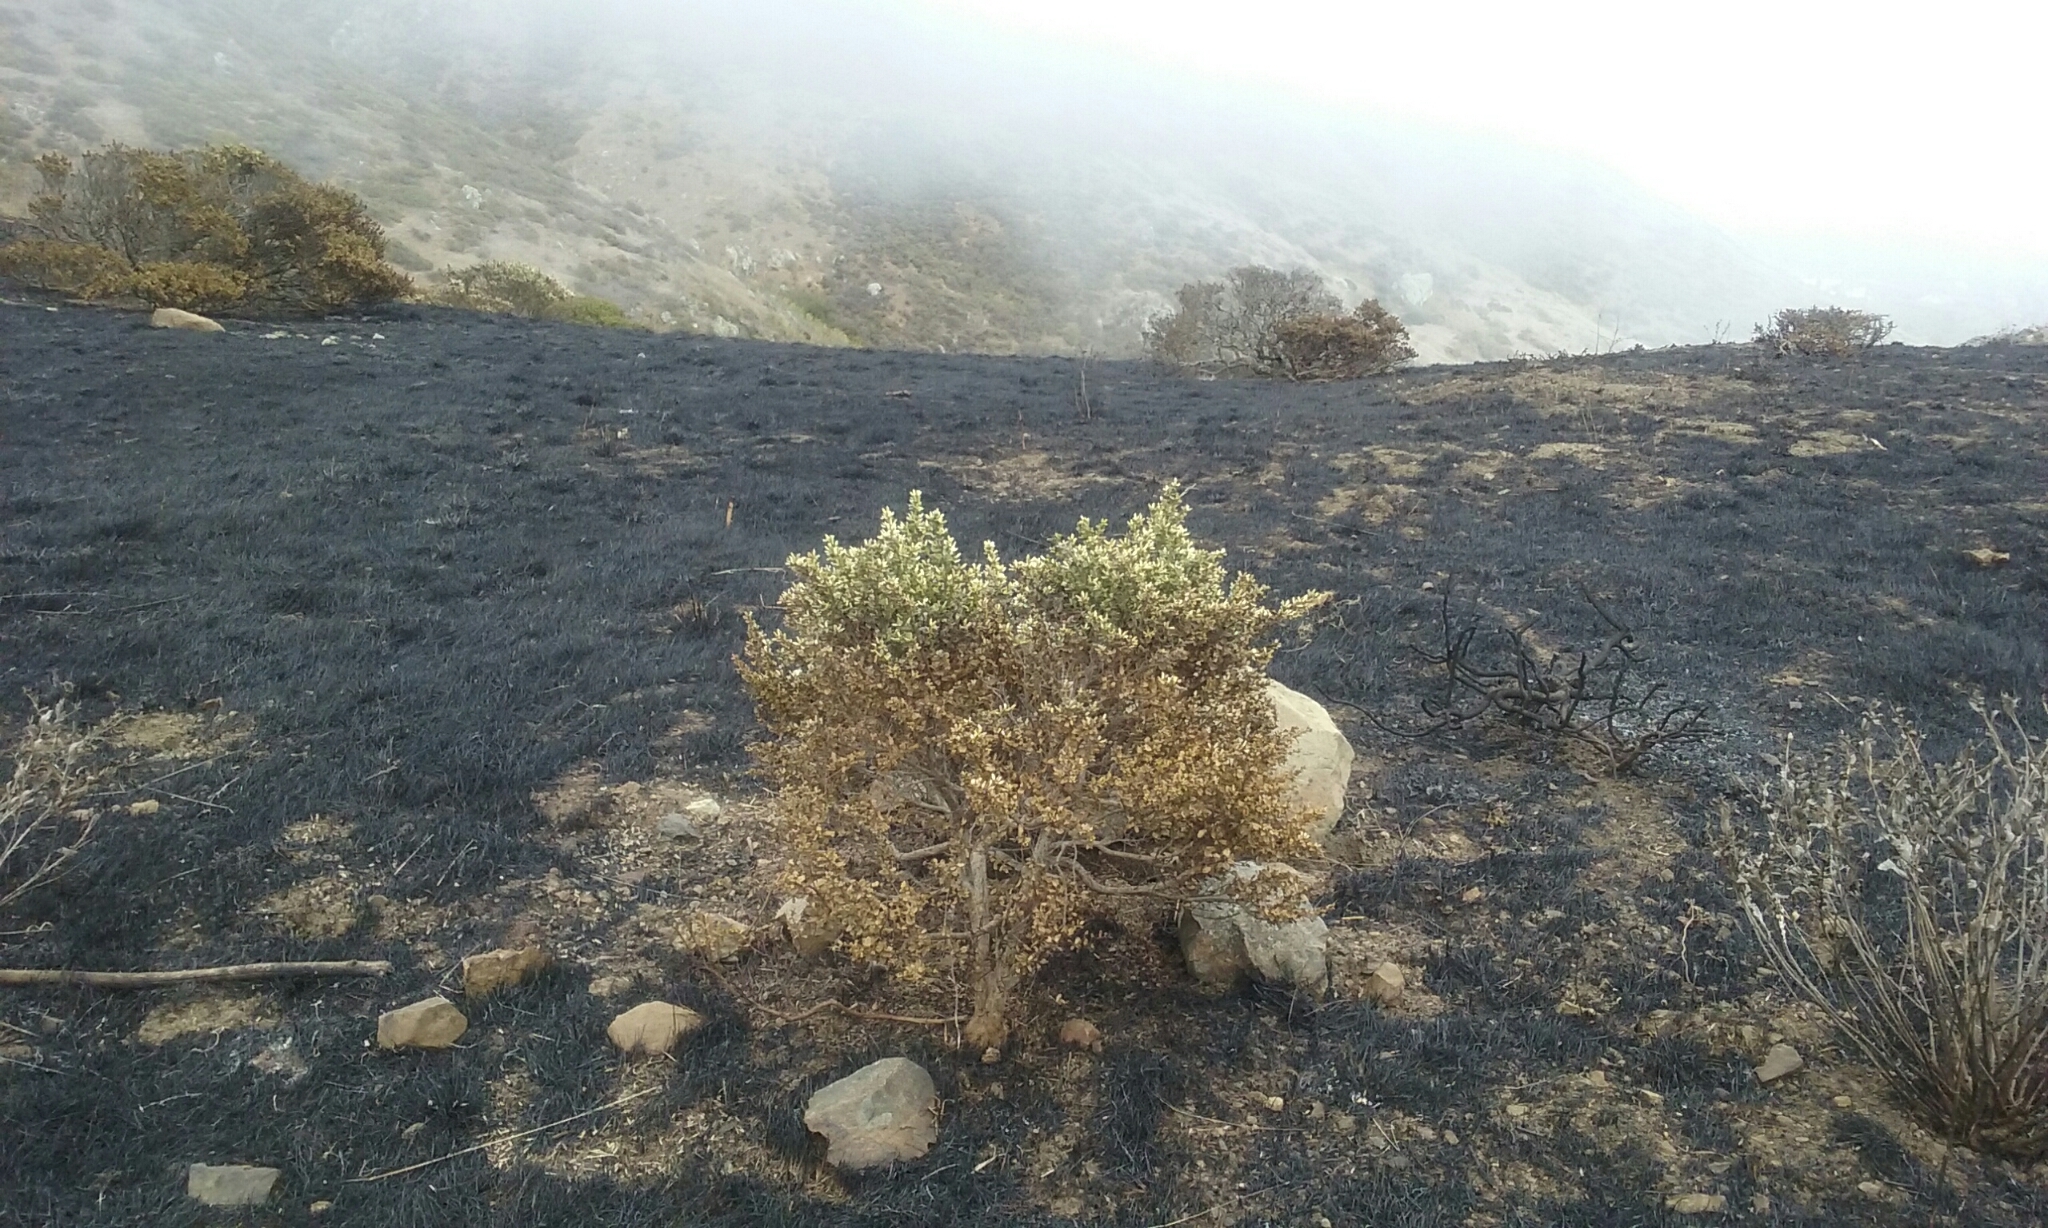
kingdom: Plantae
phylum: Tracheophyta
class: Magnoliopsida
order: Asterales
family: Asteraceae
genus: Baccharis
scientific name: Baccharis pilularis
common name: Coyotebrush
